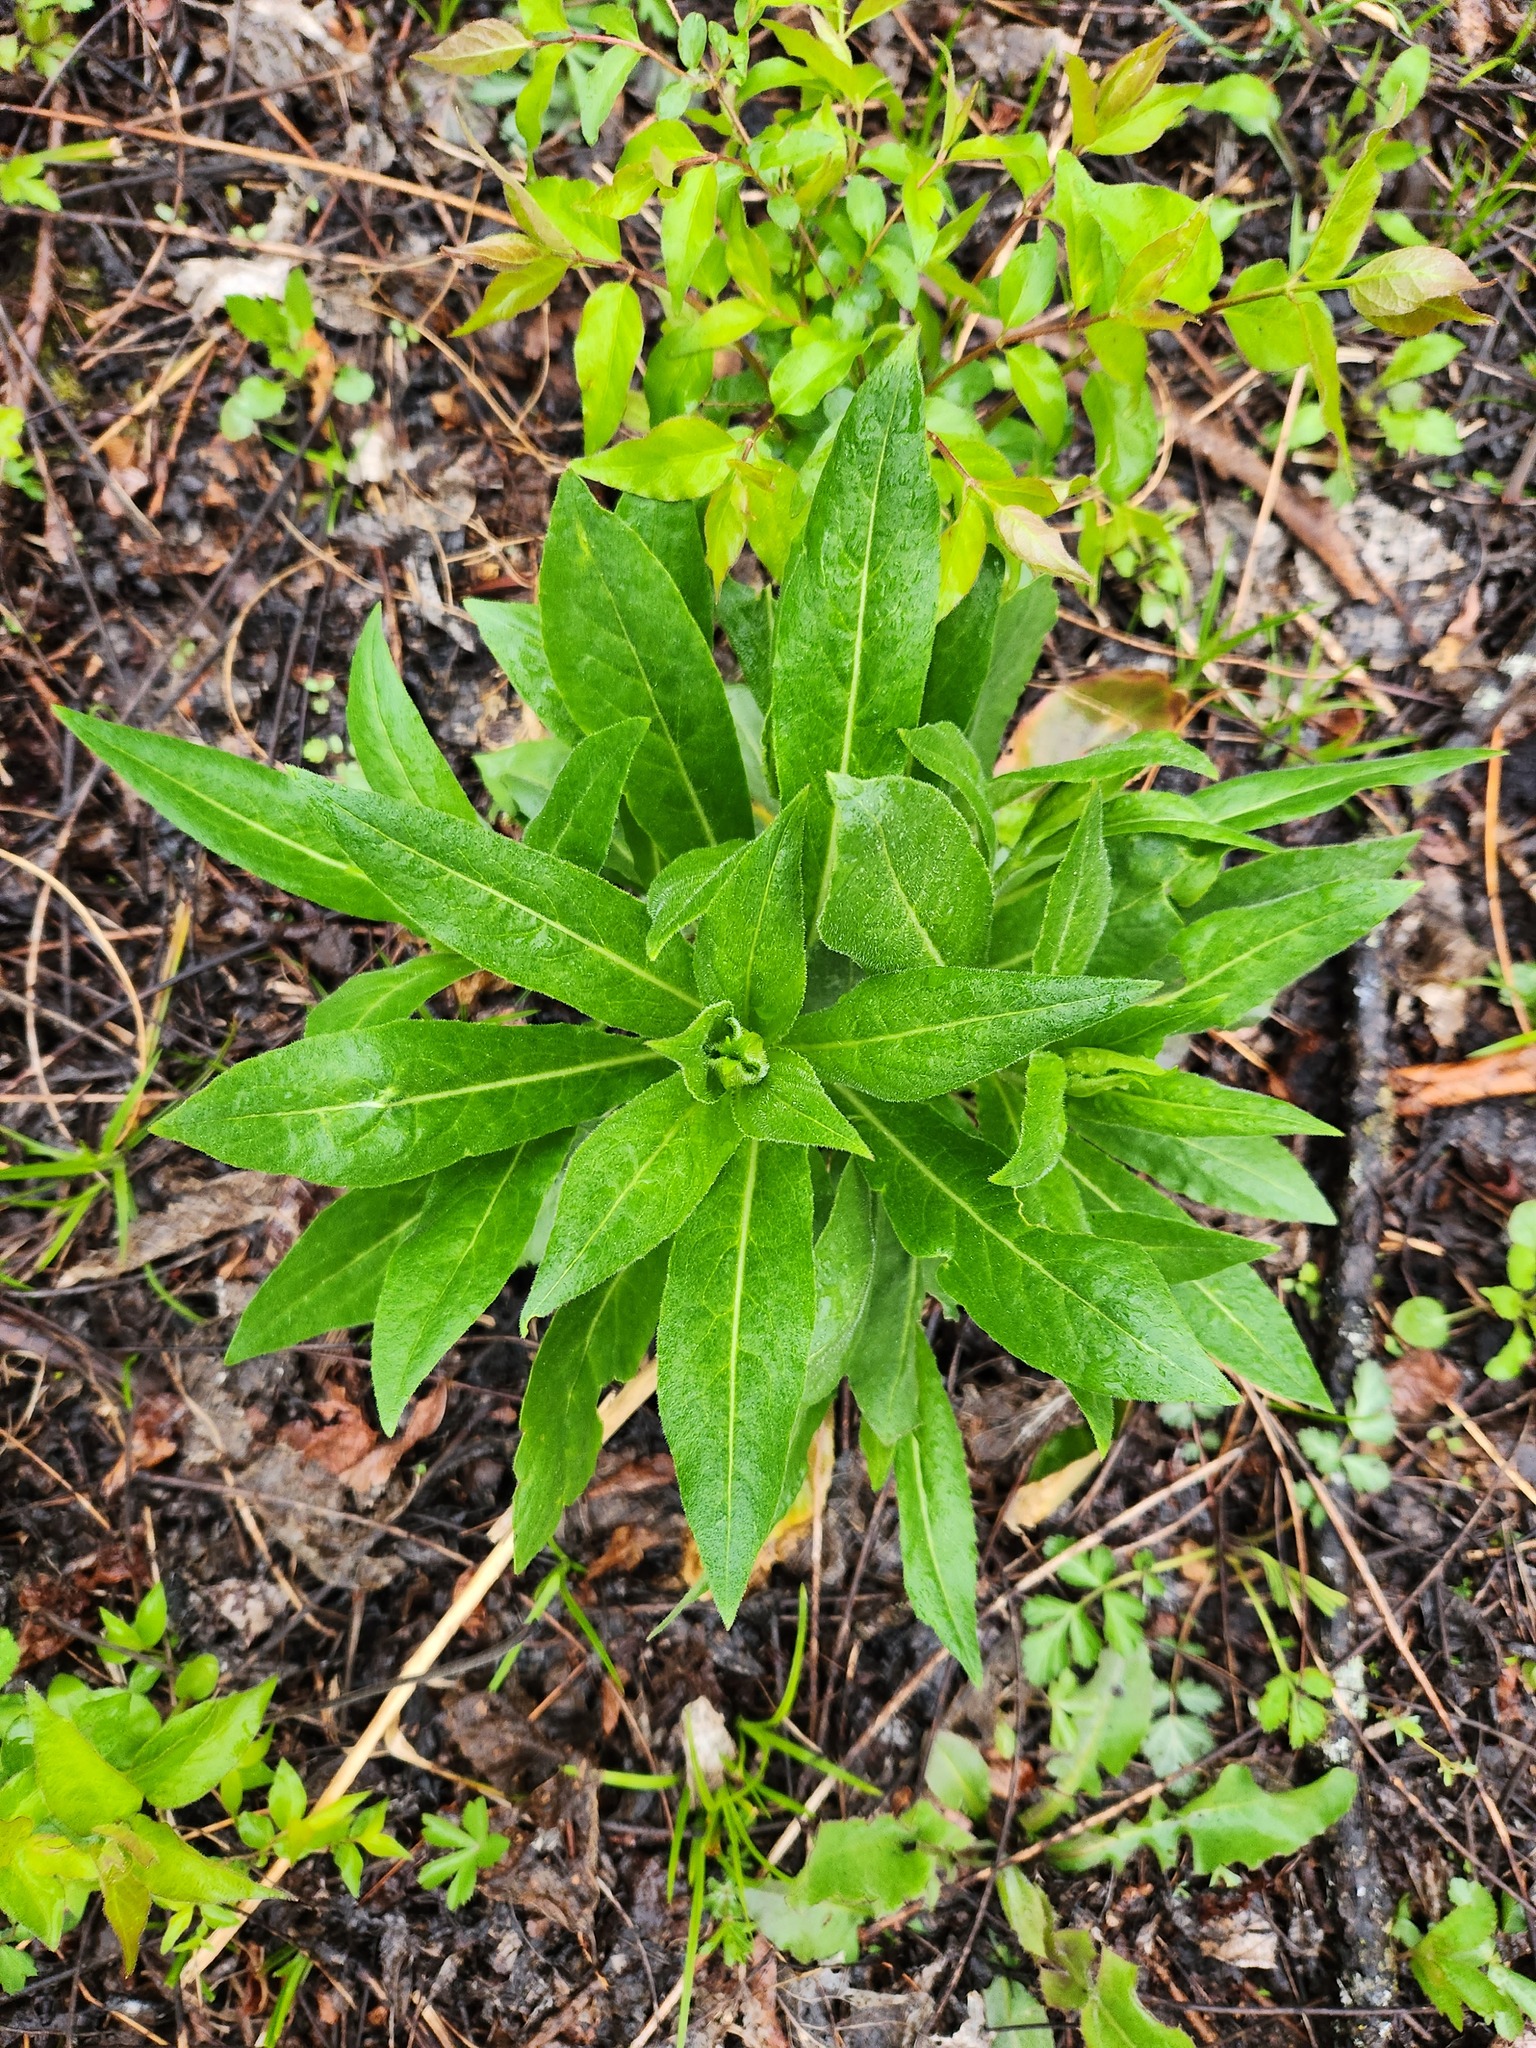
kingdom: Plantae
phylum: Tracheophyta
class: Magnoliopsida
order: Brassicales
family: Brassicaceae
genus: Hesperis
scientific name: Hesperis matronalis
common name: Dame's-violet
